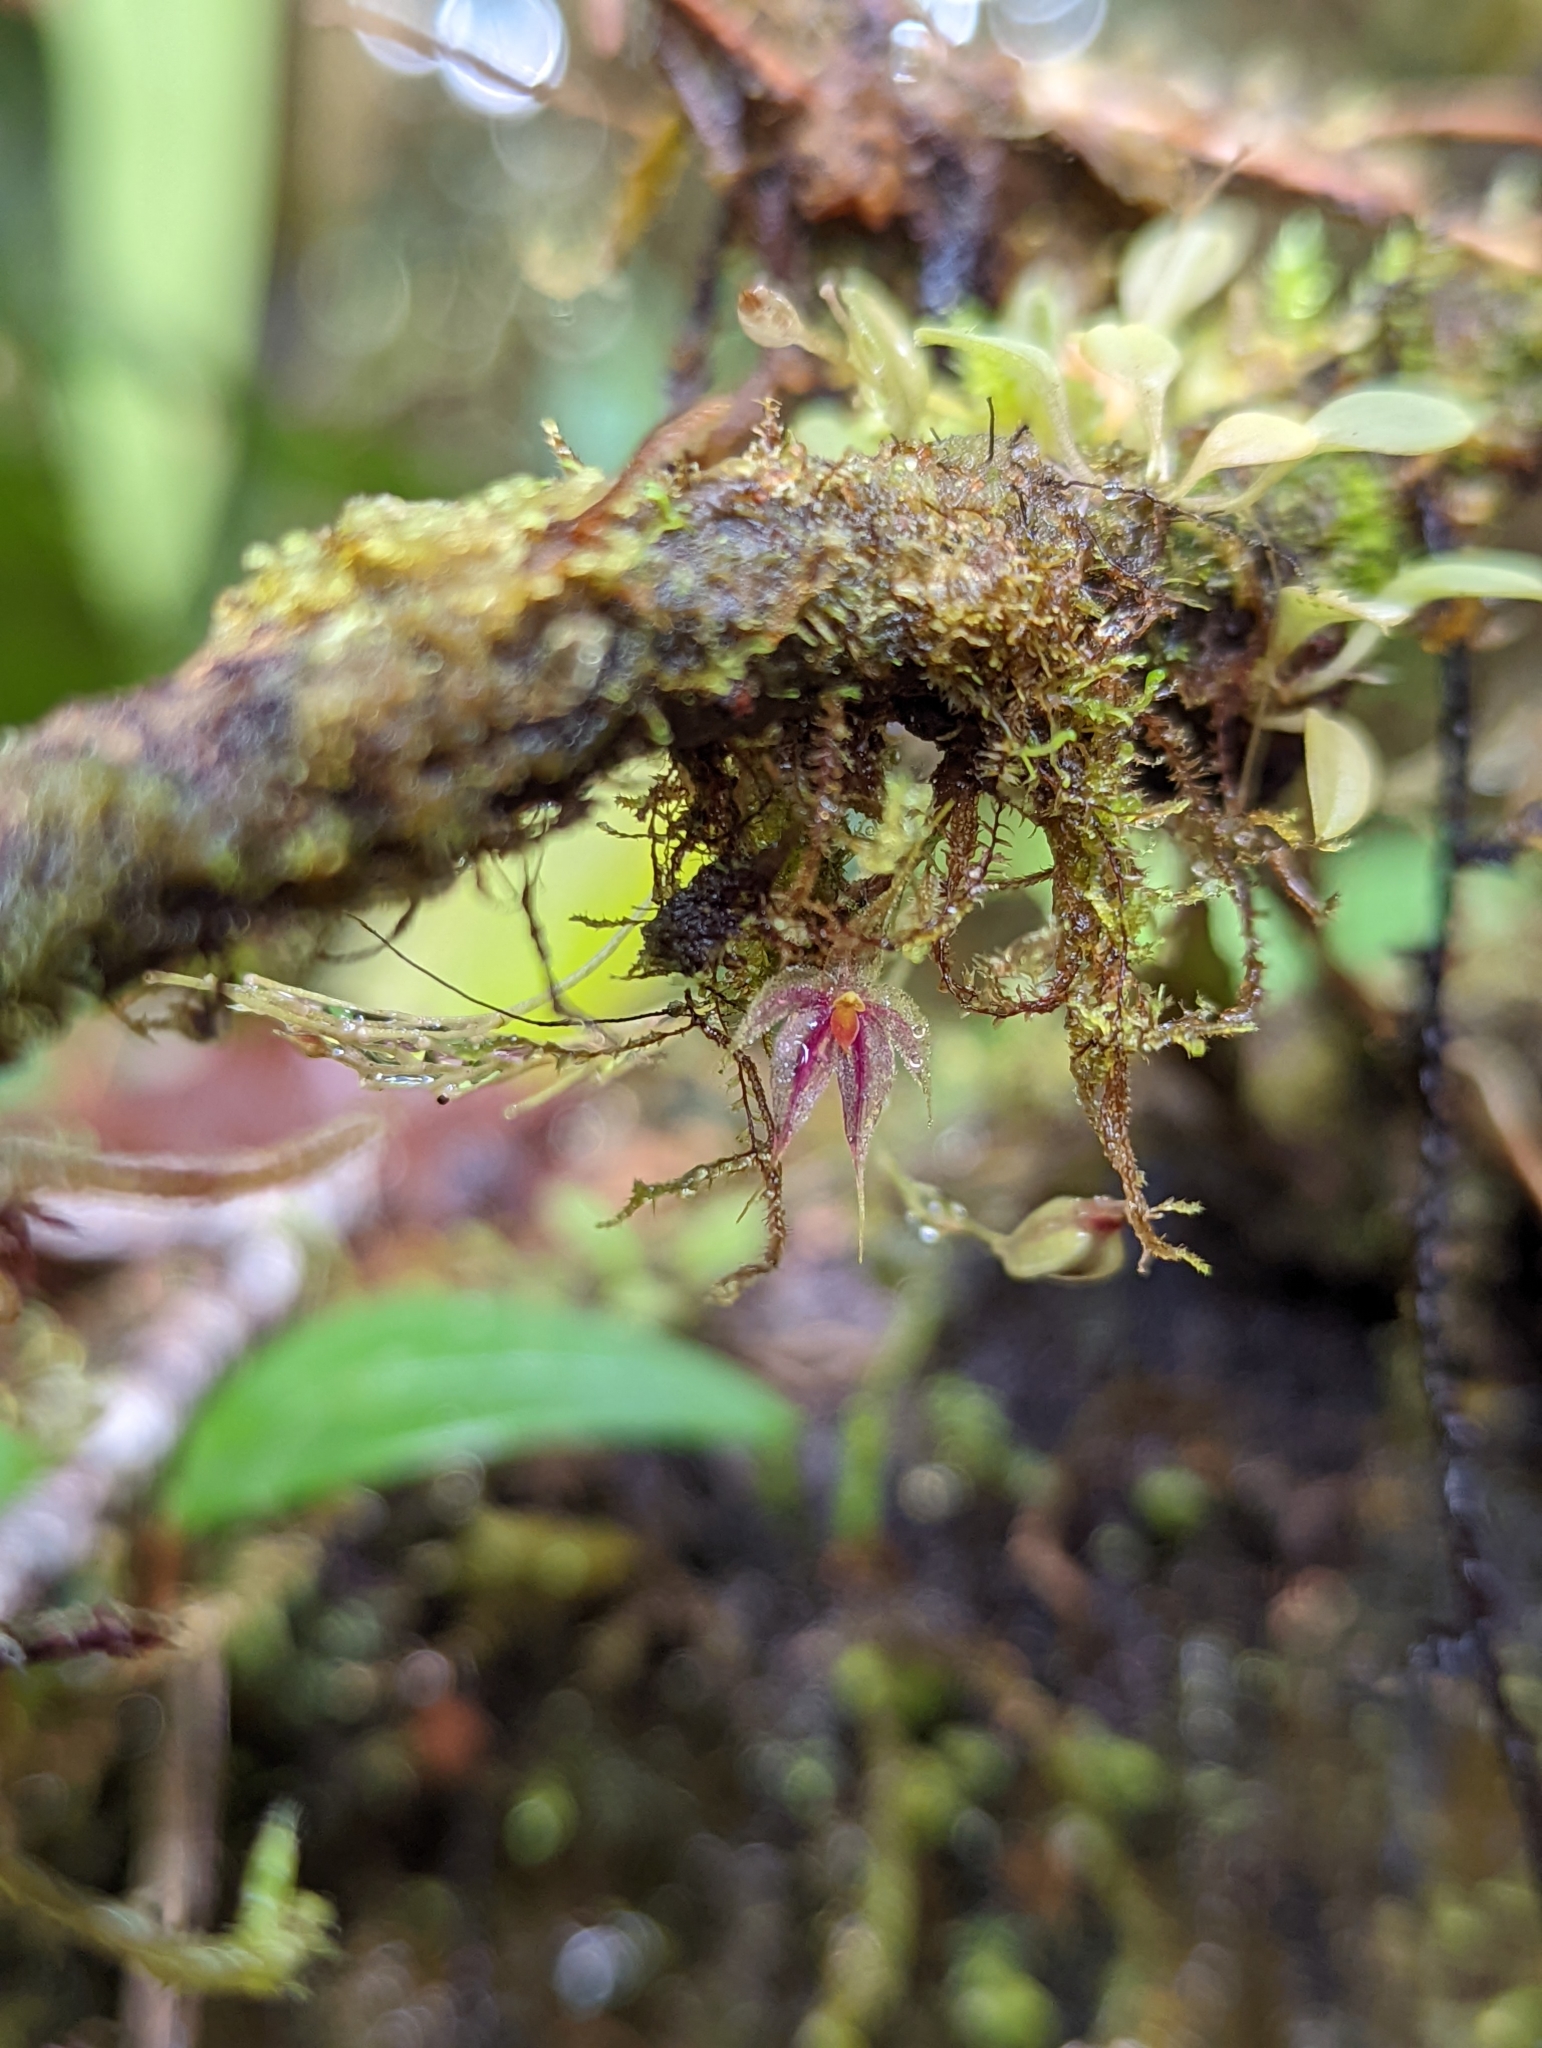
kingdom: Plantae
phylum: Tracheophyta
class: Liliopsida
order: Asparagales
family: Orchidaceae
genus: Platystele
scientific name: Platystele posadarum
